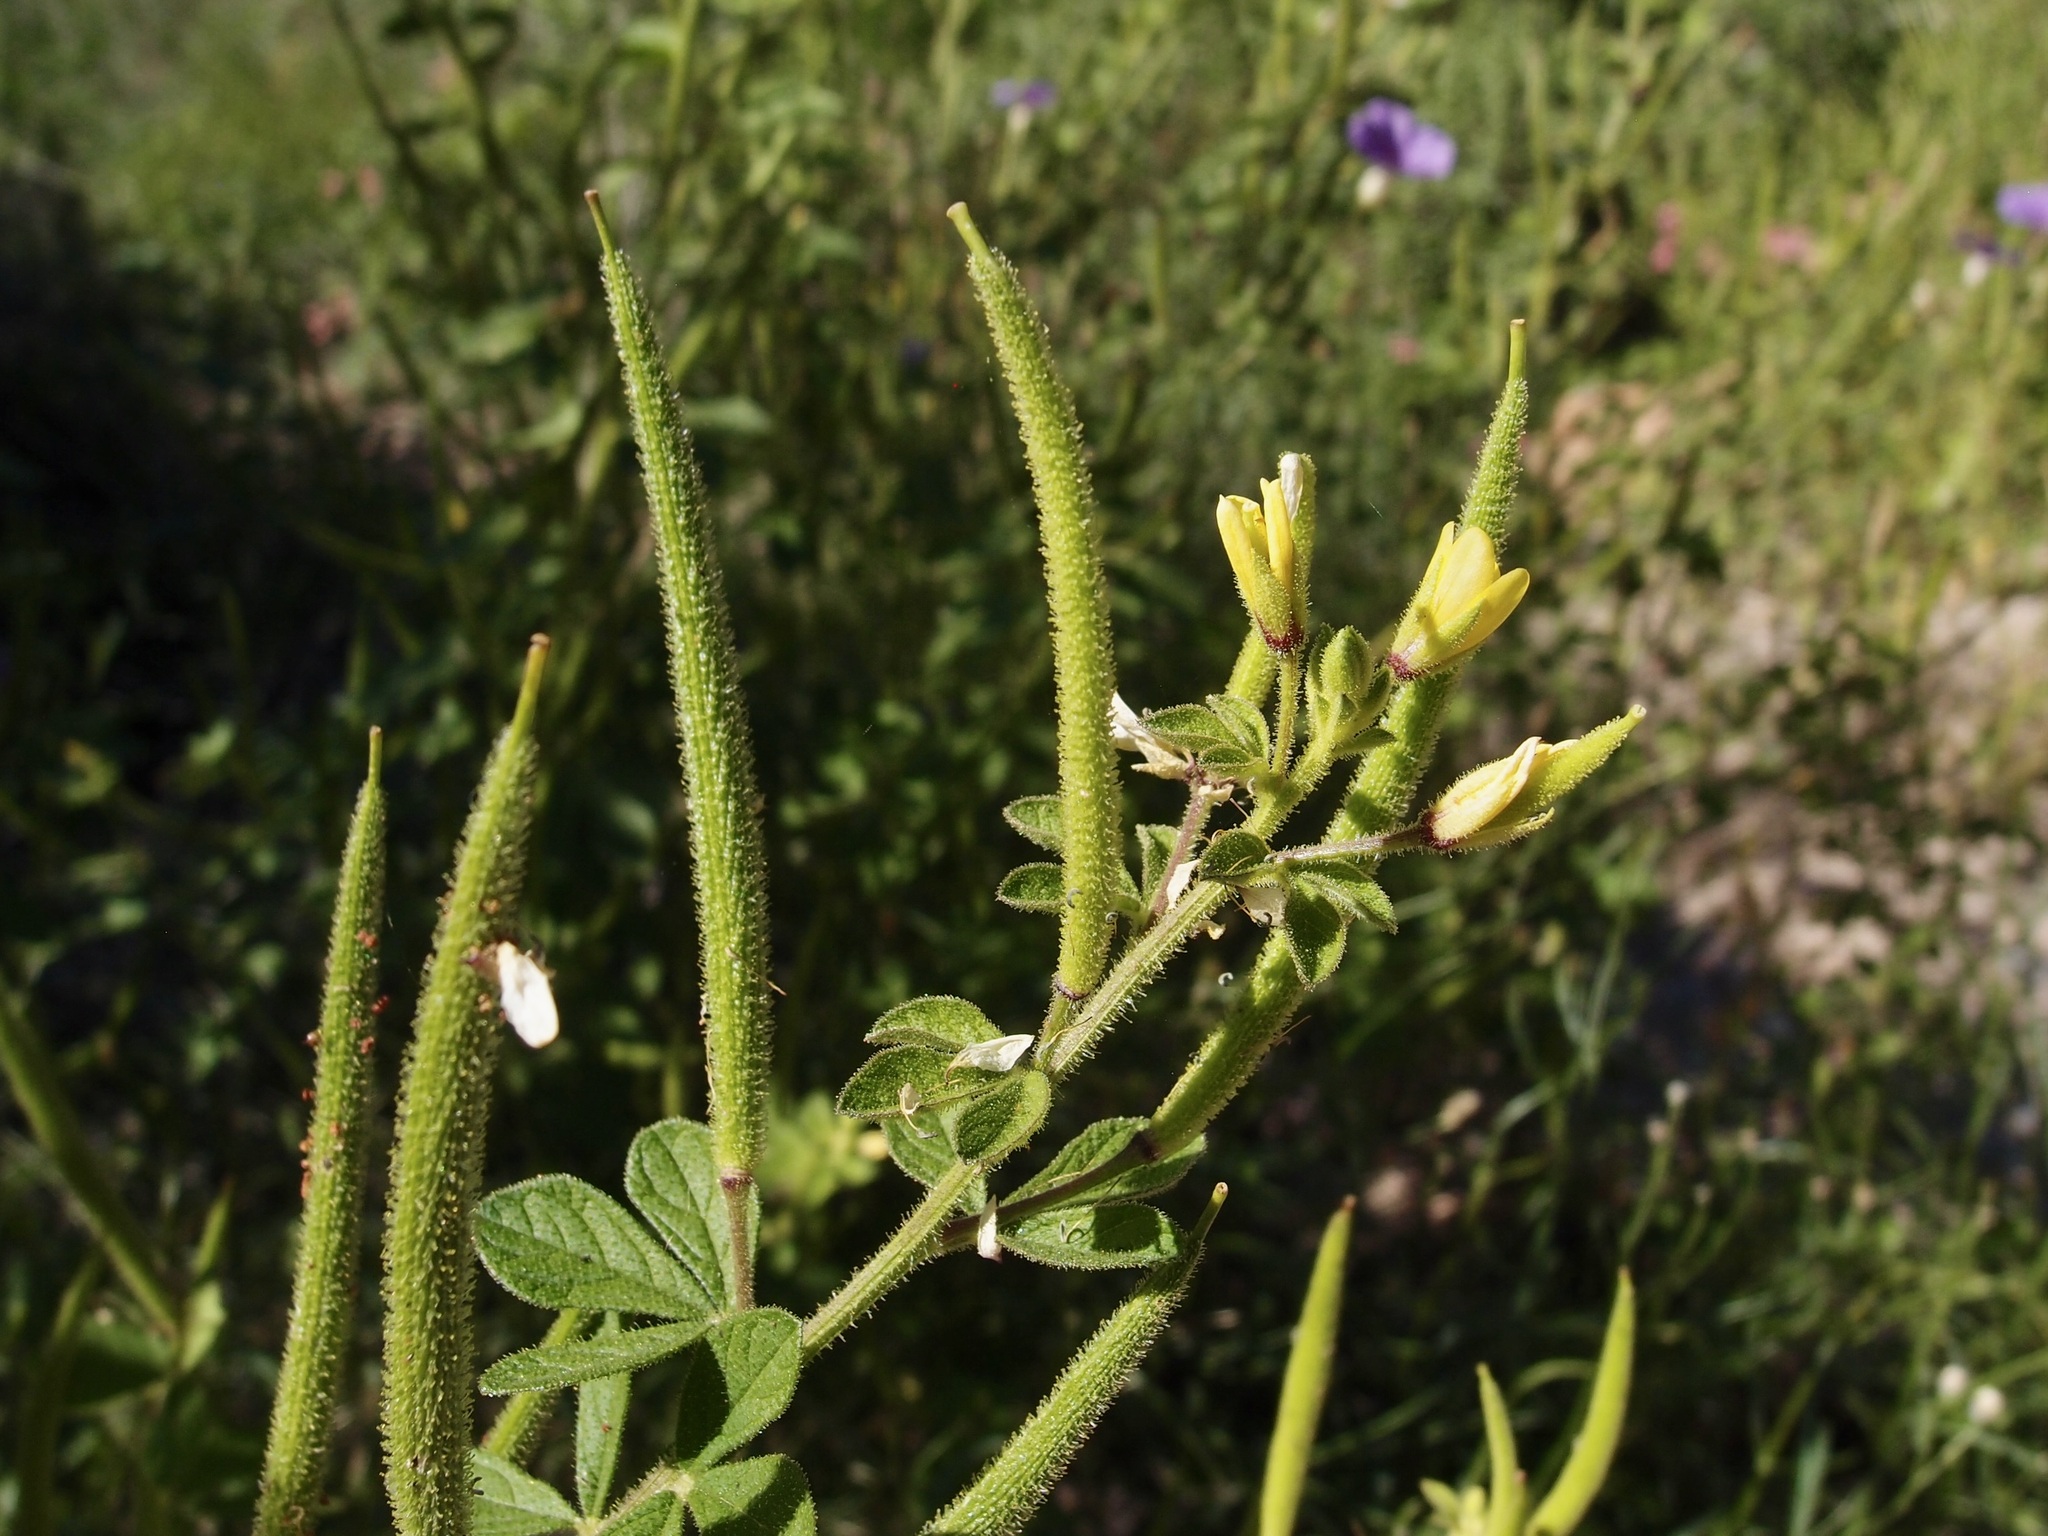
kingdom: Plantae
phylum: Tracheophyta
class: Magnoliopsida
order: Brassicales
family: Cleomaceae
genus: Arivela
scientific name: Arivela viscosa
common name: Asian spiderflower
